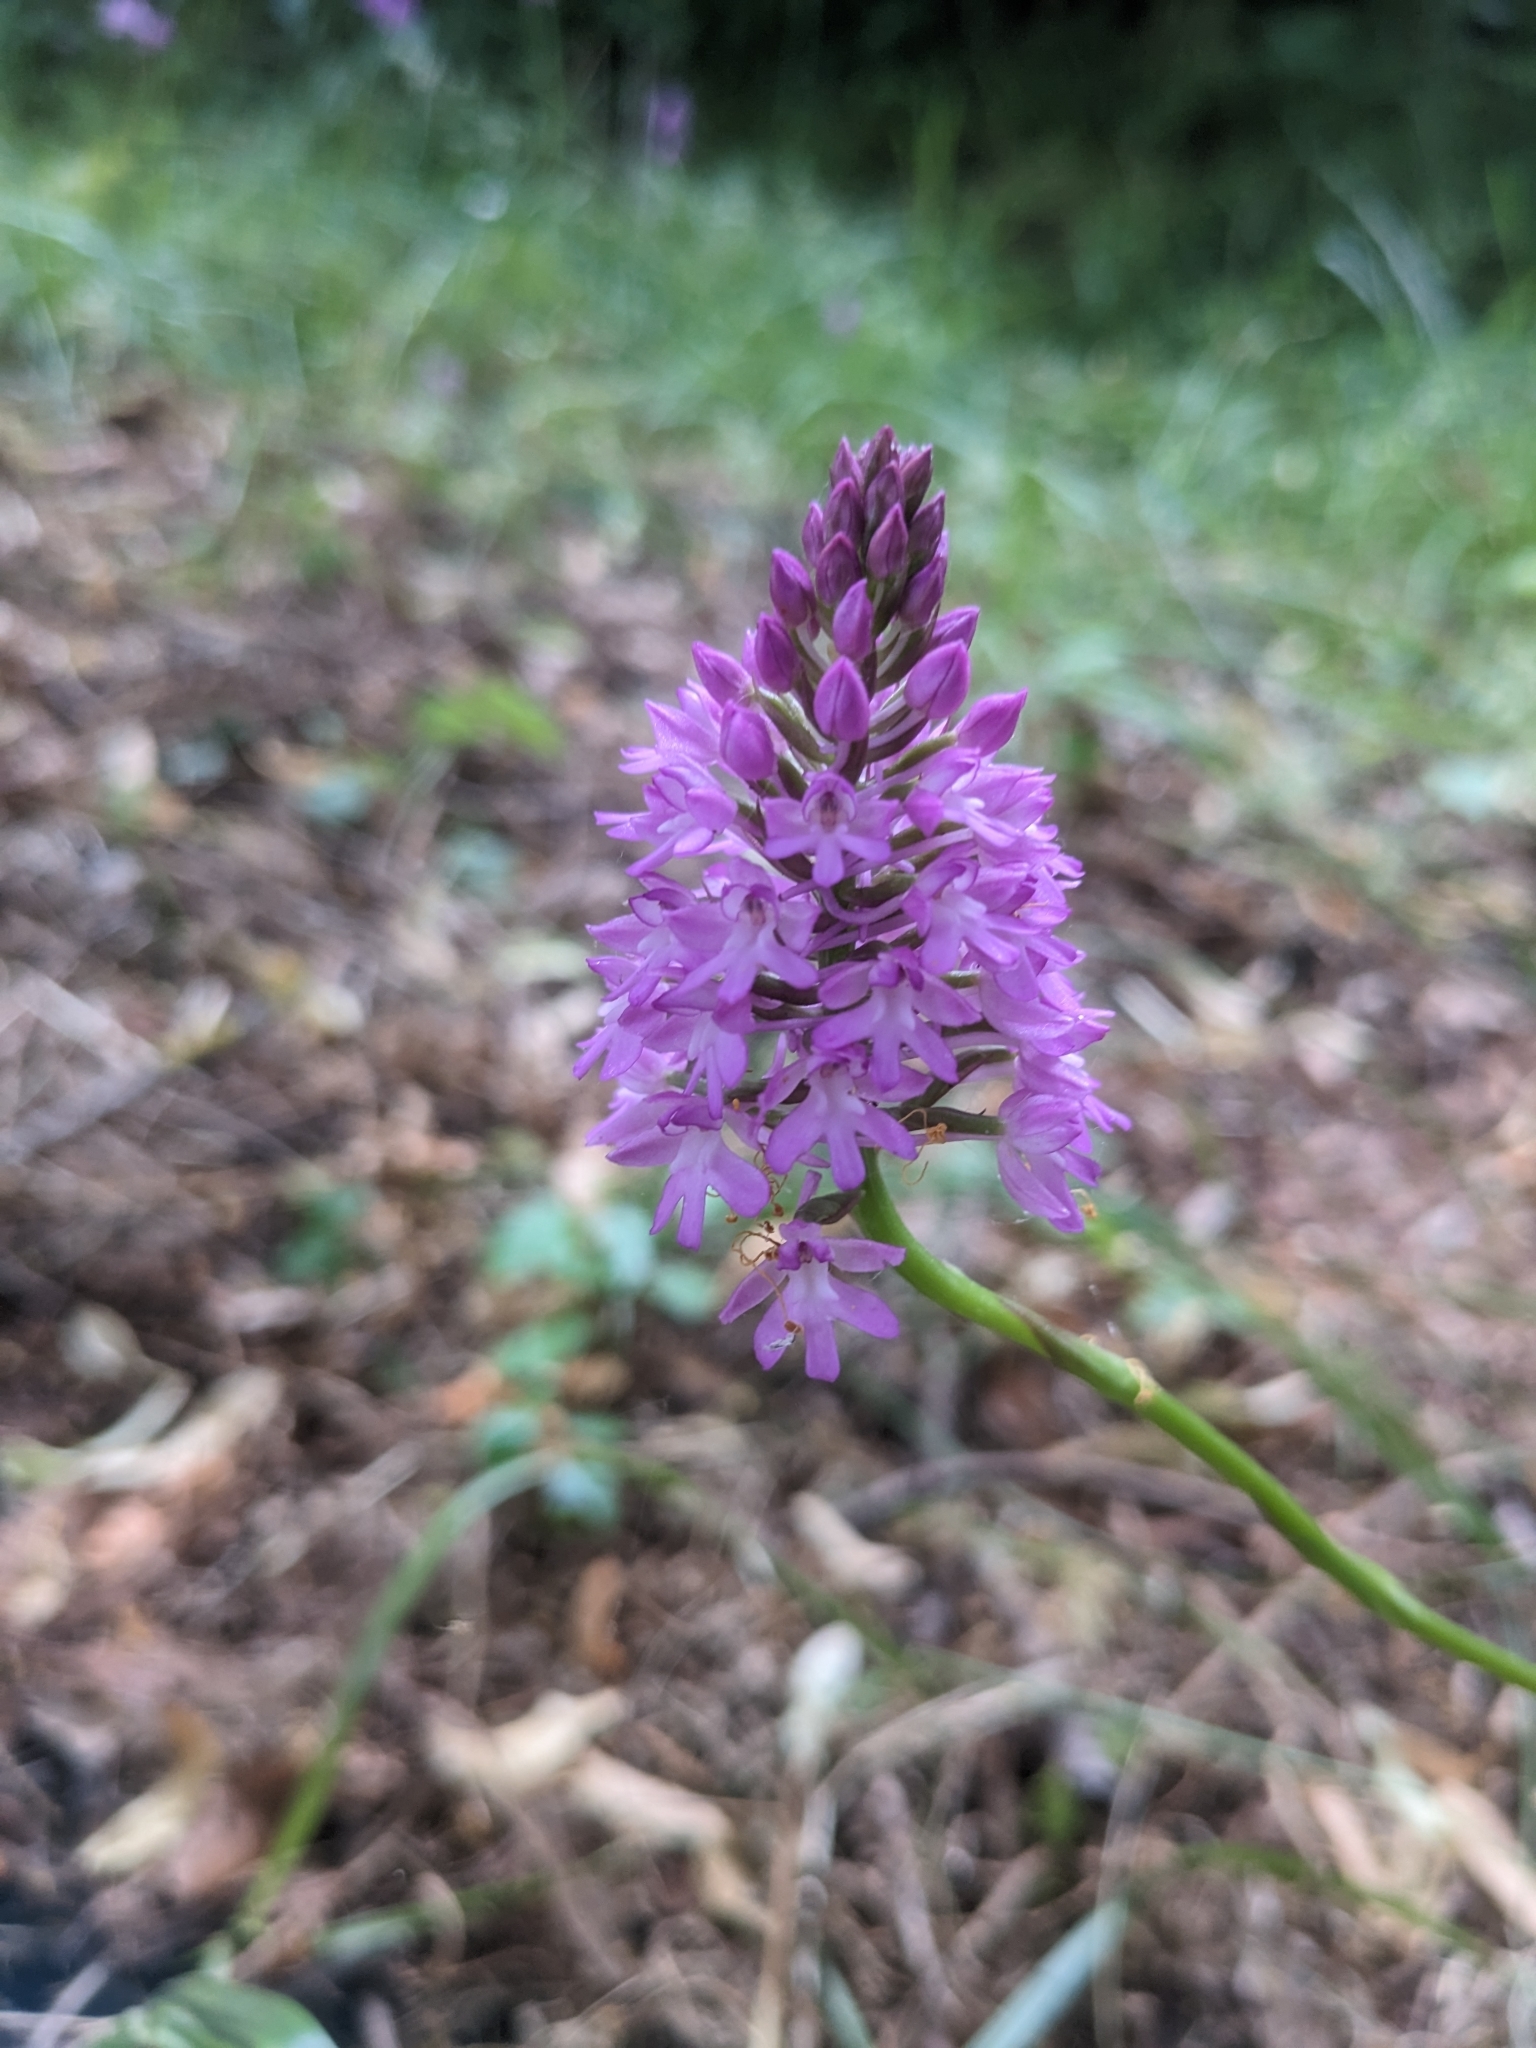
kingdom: Plantae
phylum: Tracheophyta
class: Liliopsida
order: Asparagales
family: Orchidaceae
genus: Anacamptis
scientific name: Anacamptis pyramidalis
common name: Pyramidal orchid
